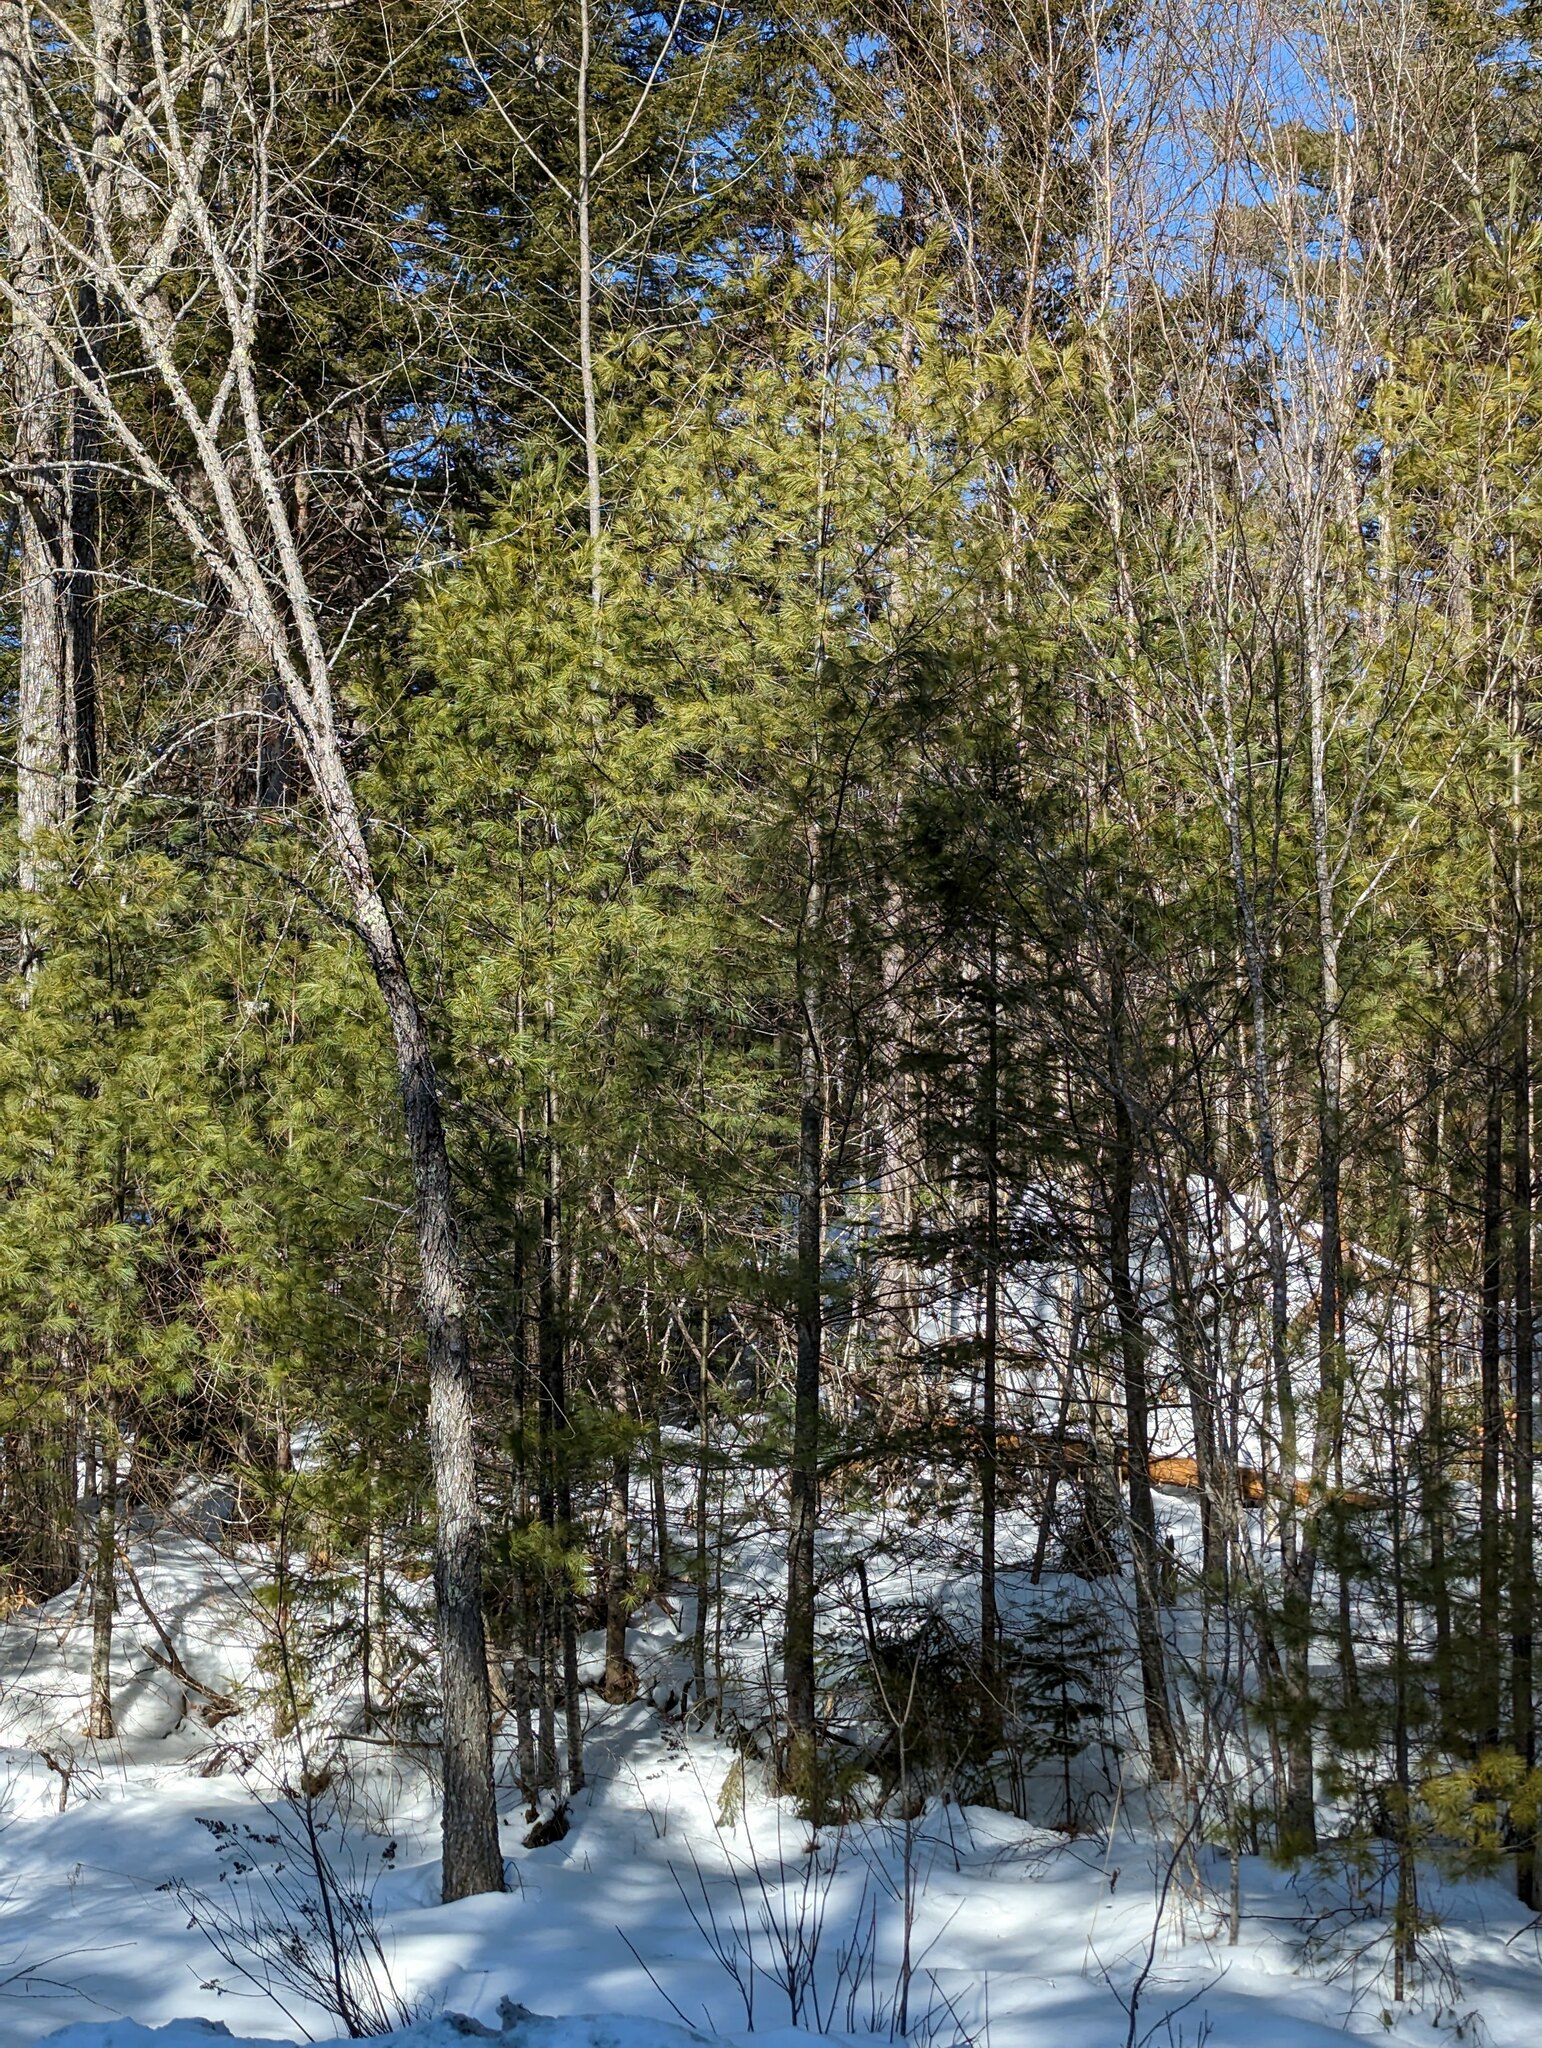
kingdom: Plantae
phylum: Tracheophyta
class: Pinopsida
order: Pinales
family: Pinaceae
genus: Pinus
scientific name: Pinus strobus
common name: Weymouth pine
